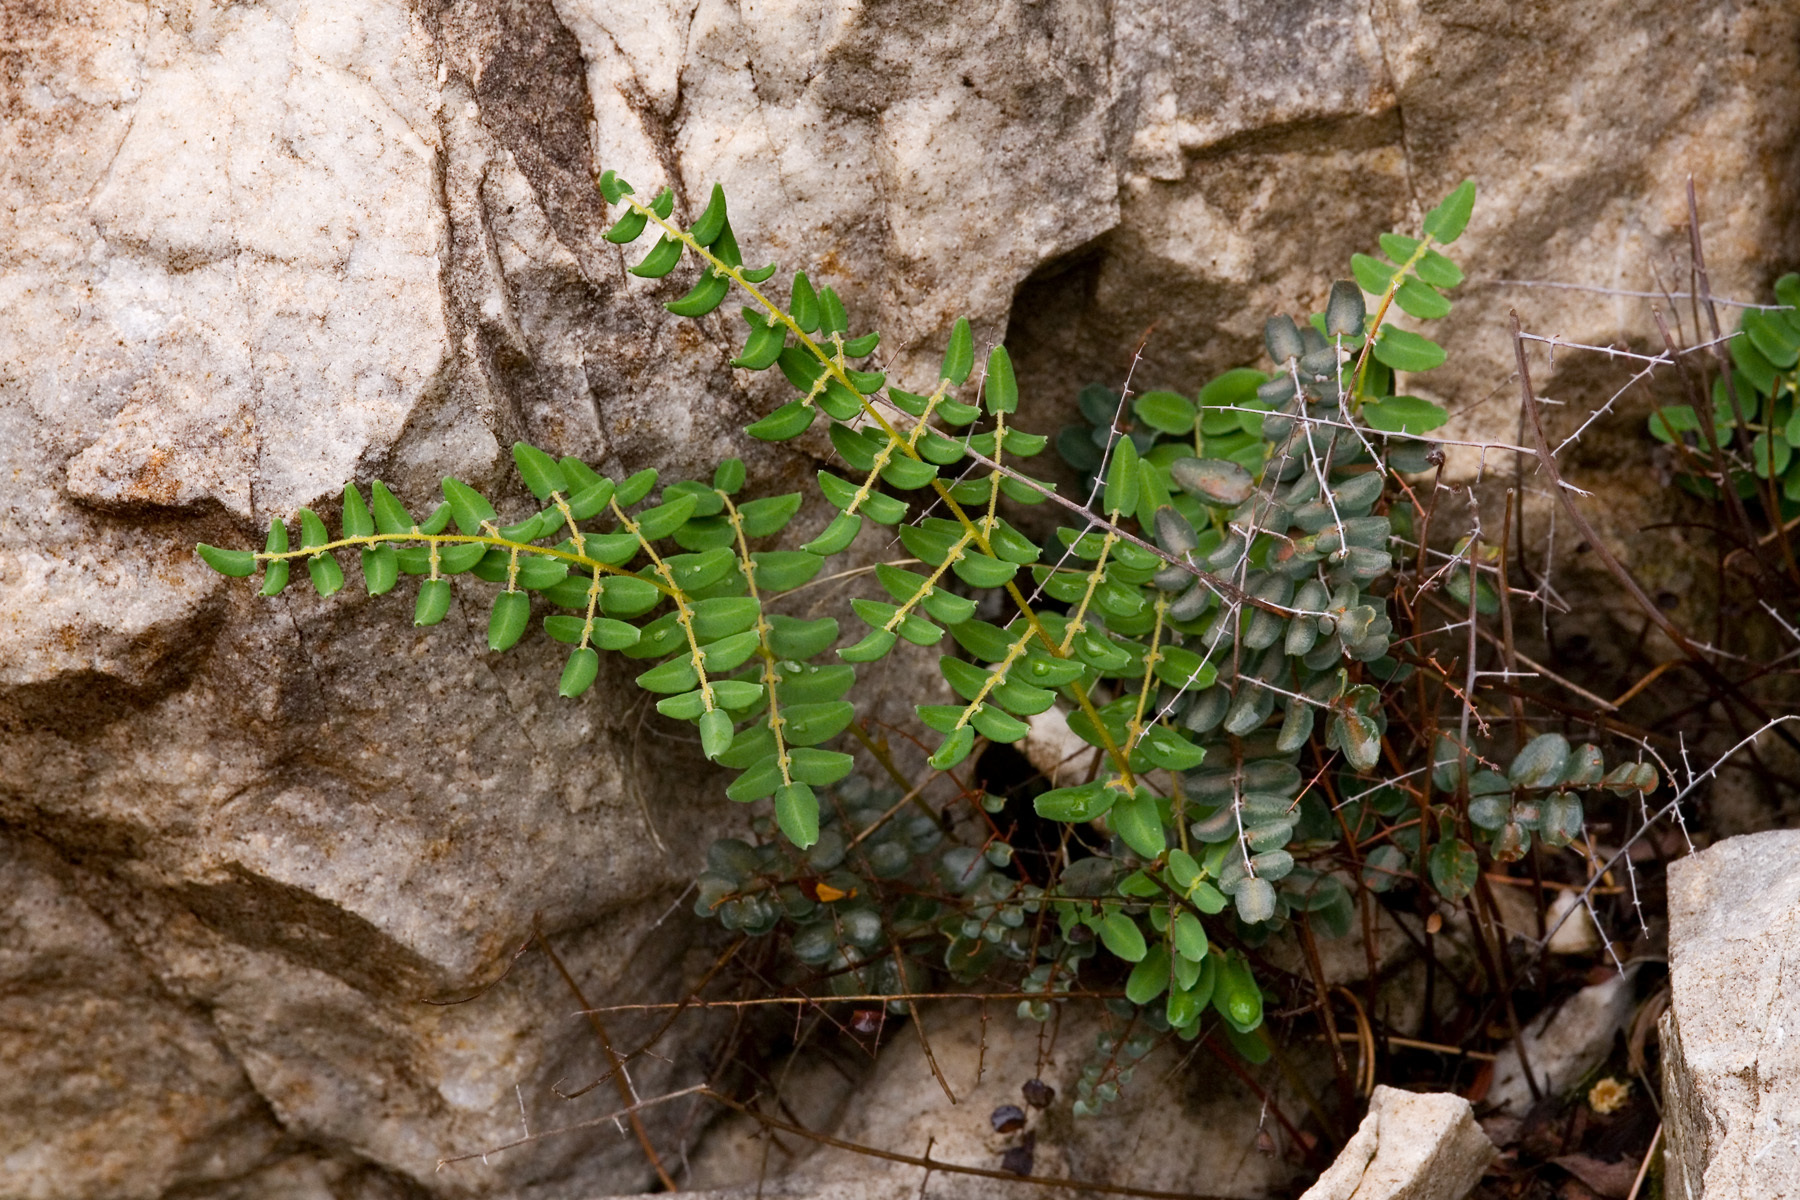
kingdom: Plantae
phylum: Tracheophyta
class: Polypodiopsida
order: Polypodiales
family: Pteridaceae
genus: Pellaea
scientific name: Pellaea intermedia
